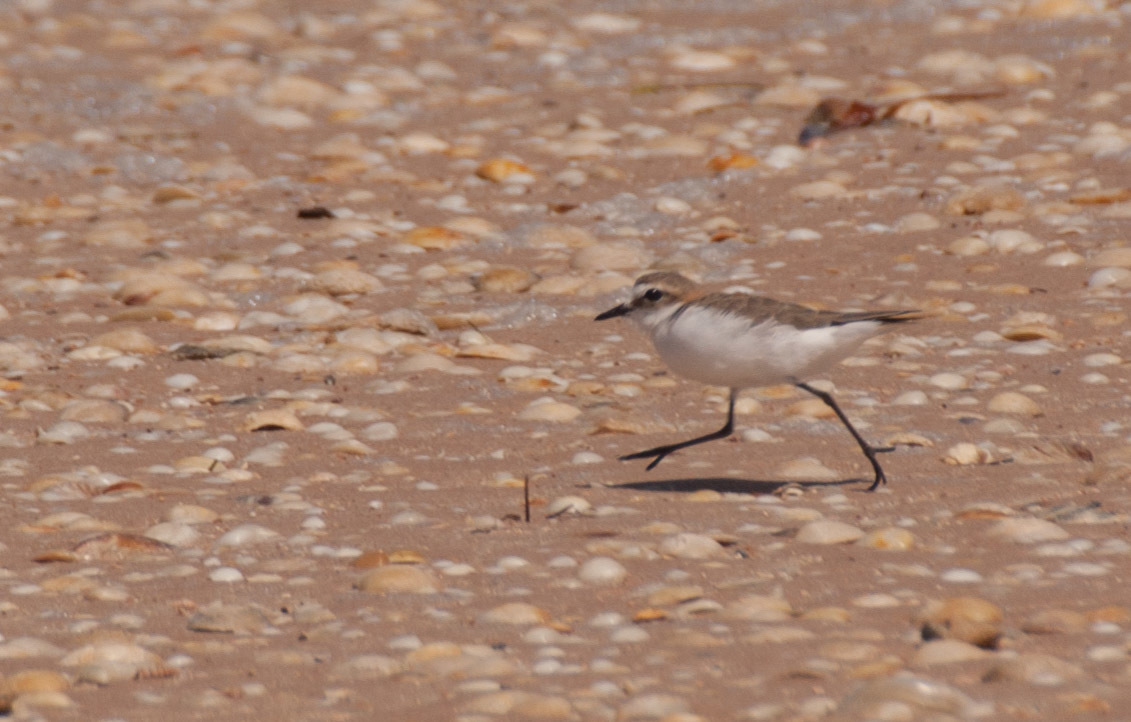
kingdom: Animalia
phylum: Chordata
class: Aves
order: Charadriiformes
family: Charadriidae
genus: Anarhynchus
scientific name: Anarhynchus
